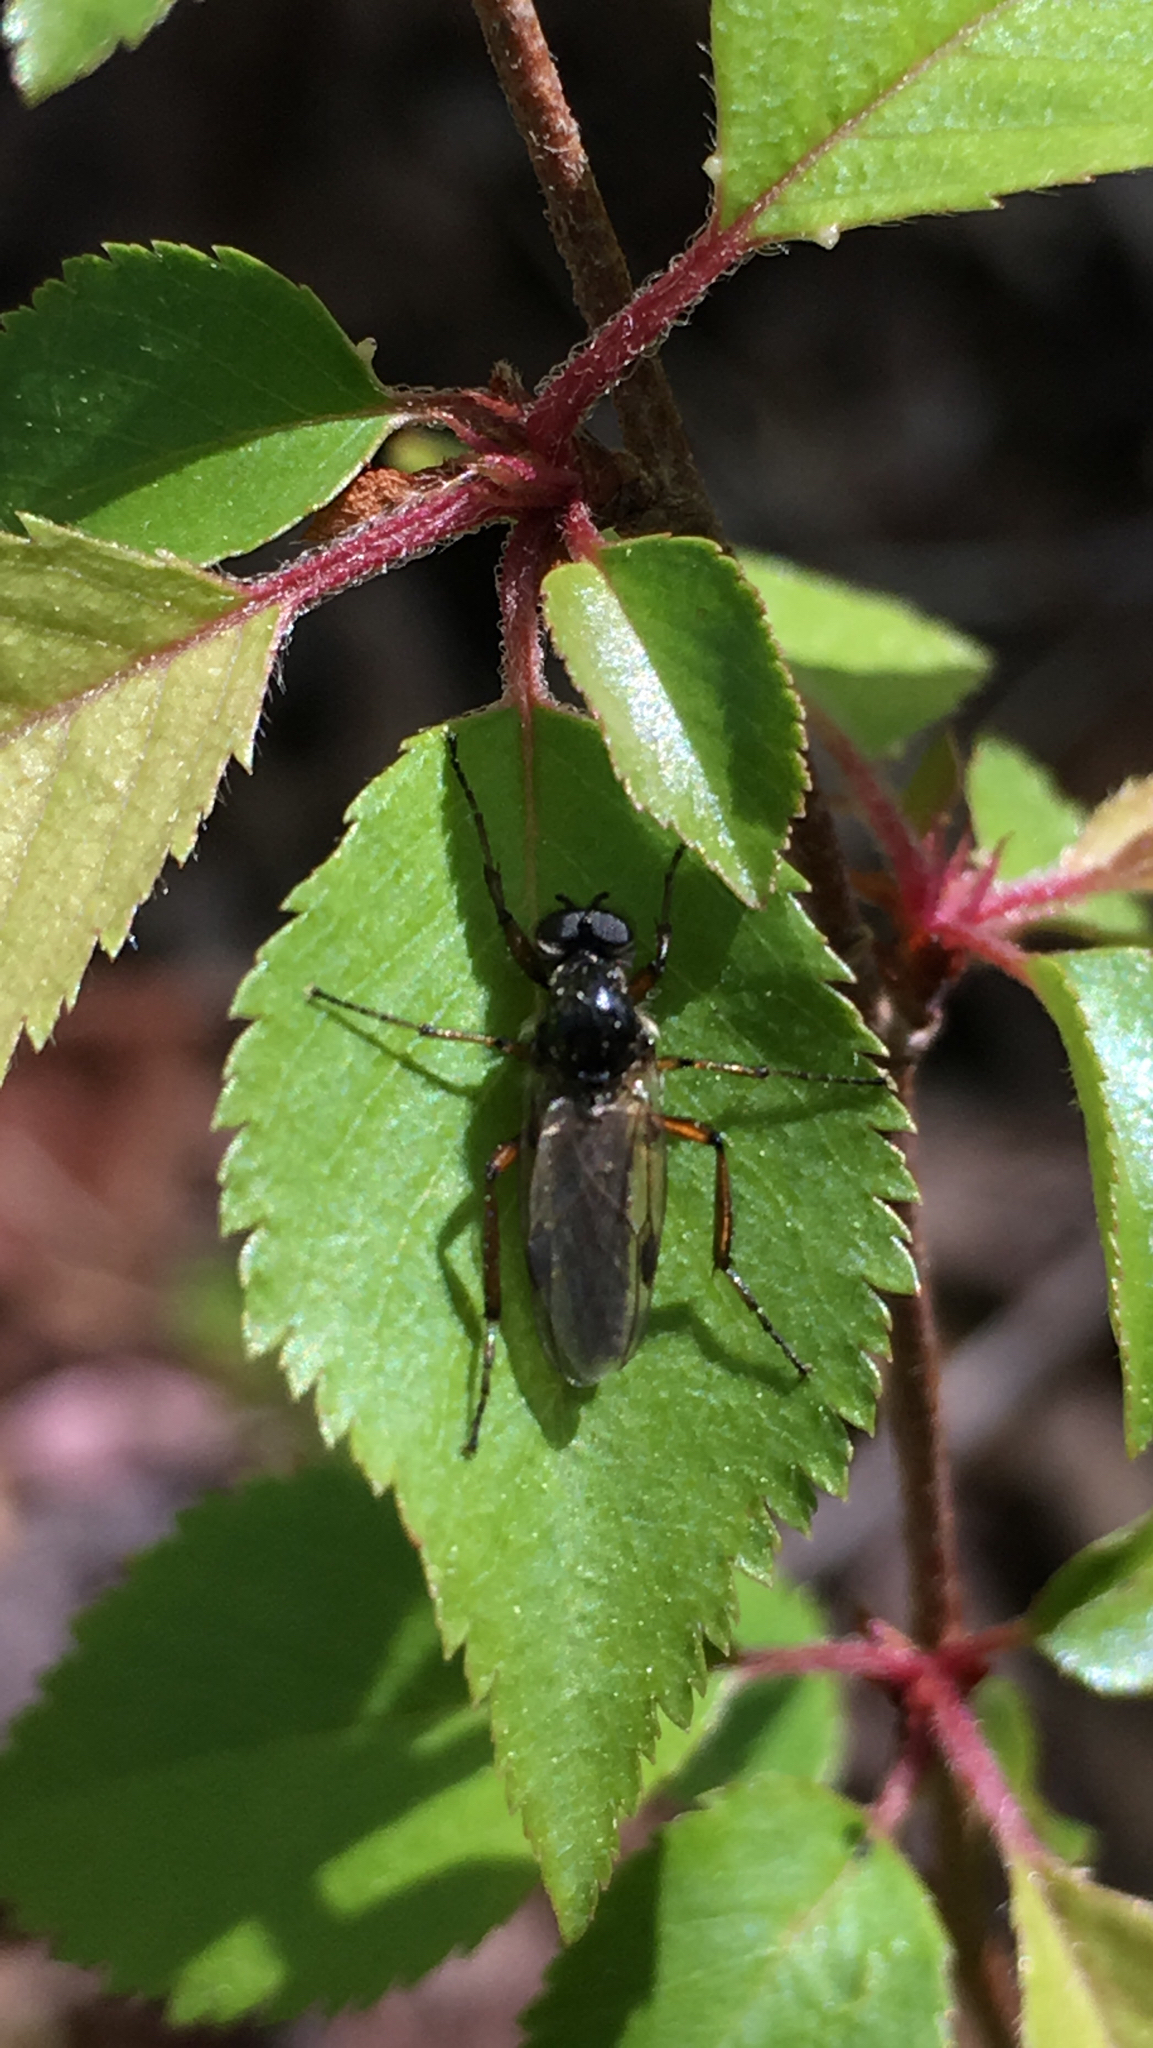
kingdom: Animalia
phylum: Arthropoda
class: Insecta
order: Diptera
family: Bibionidae
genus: Bibio
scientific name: Bibio
